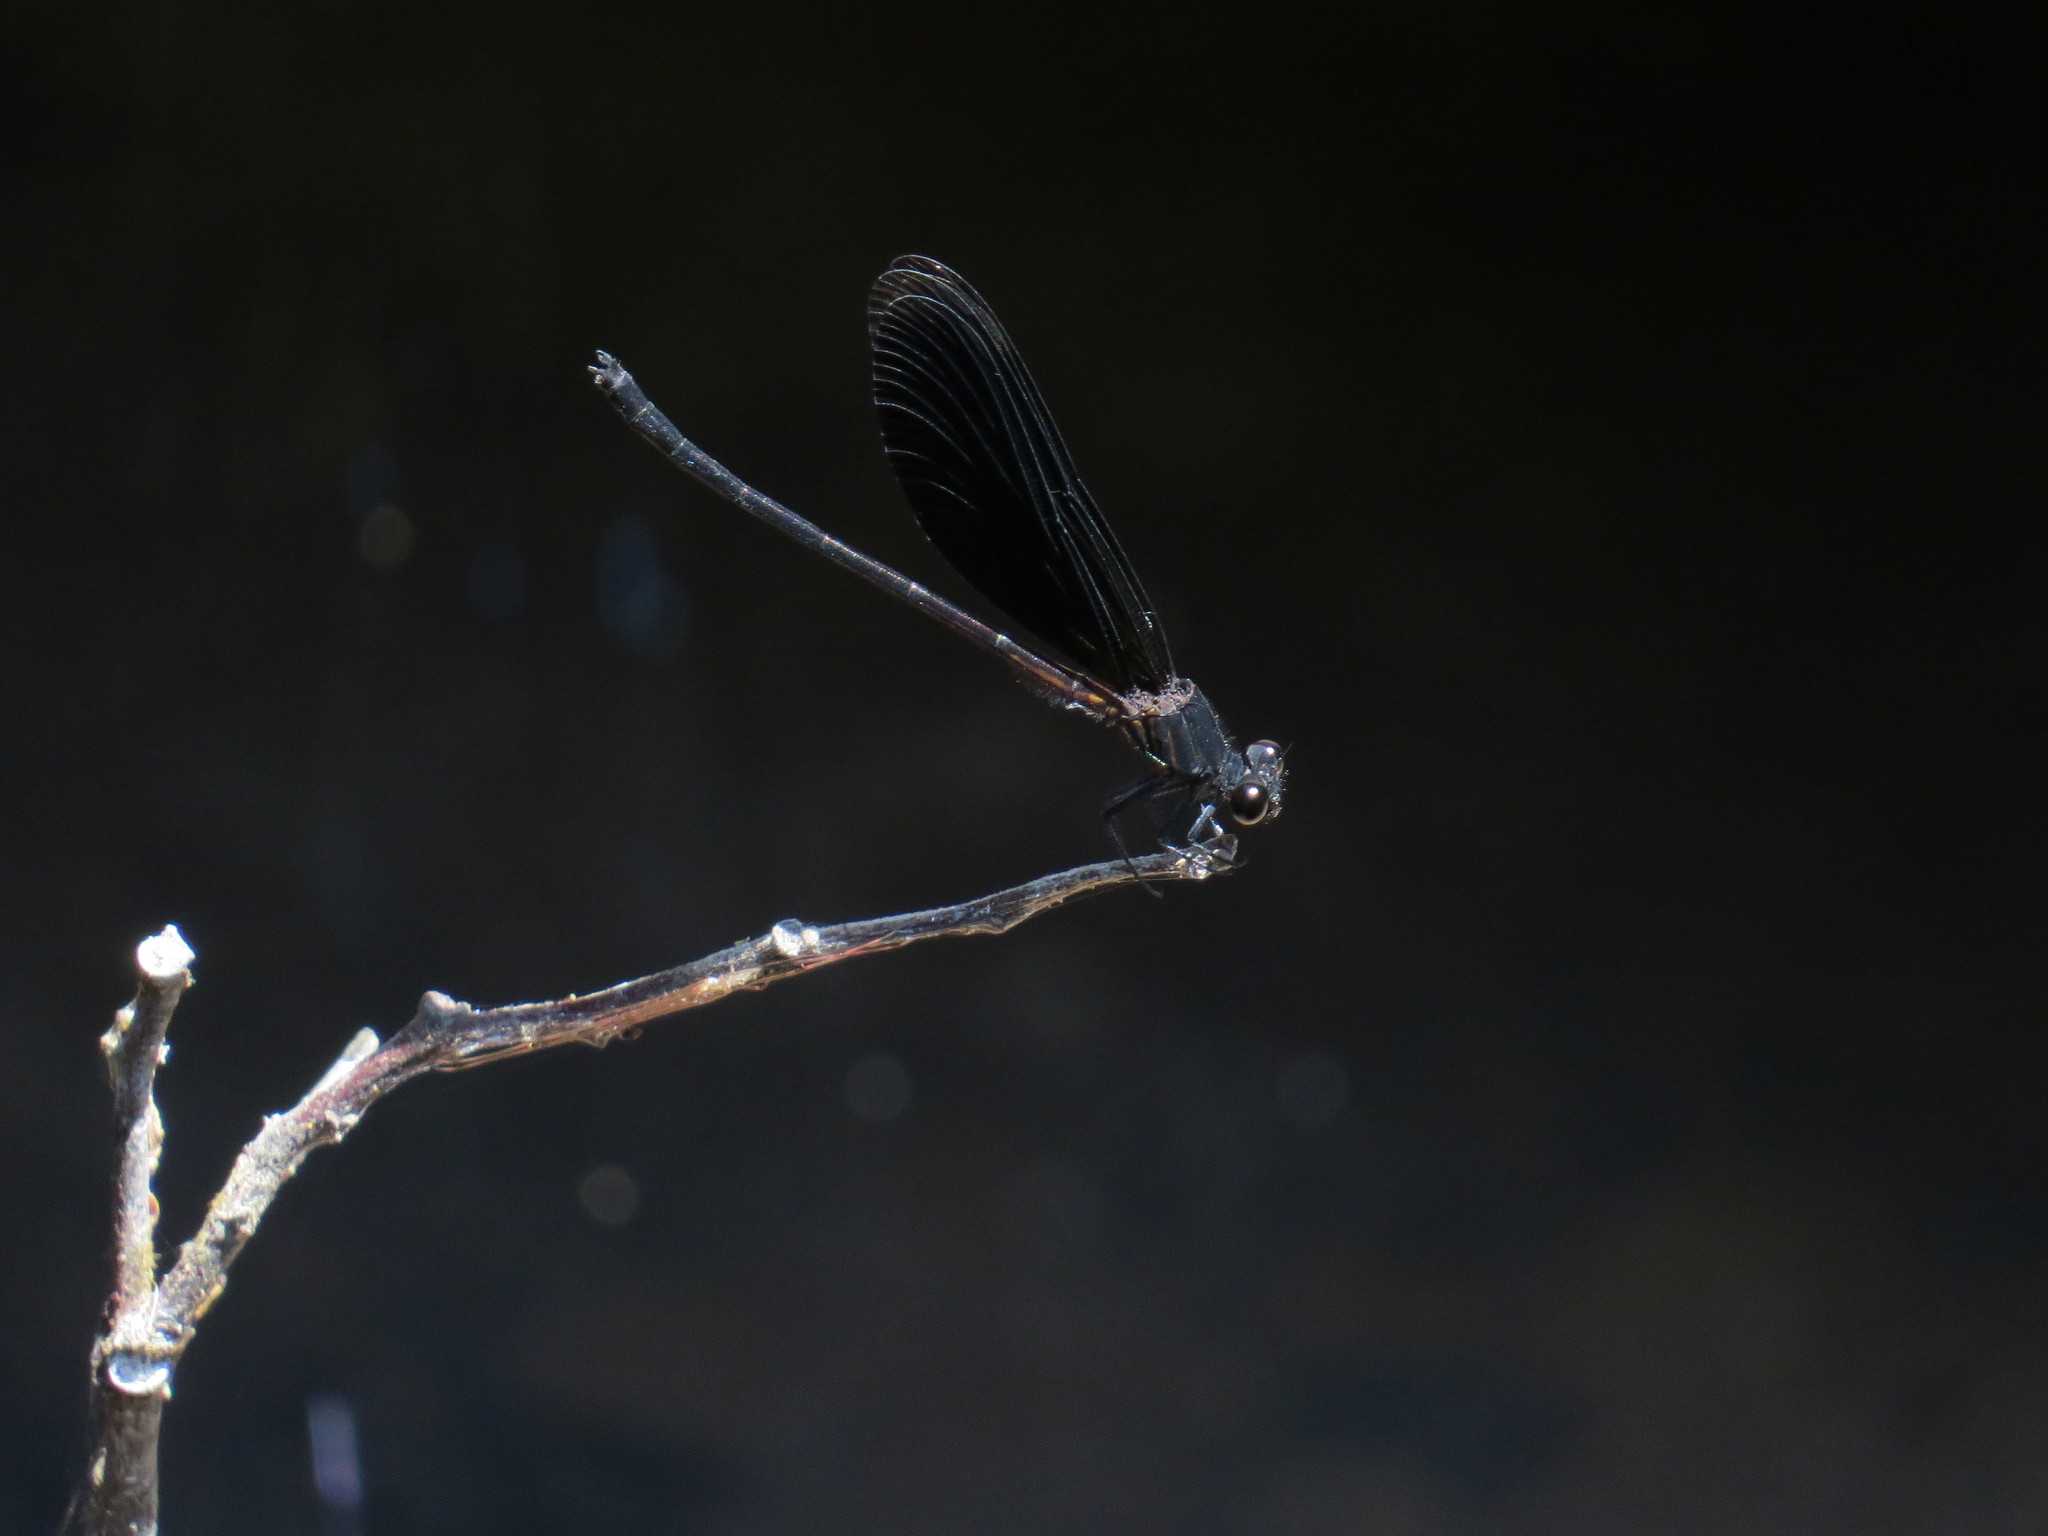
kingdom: Animalia
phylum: Arthropoda
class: Insecta
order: Odonata
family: Euphaeidae
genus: Euphaea
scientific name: Euphaea masoni
